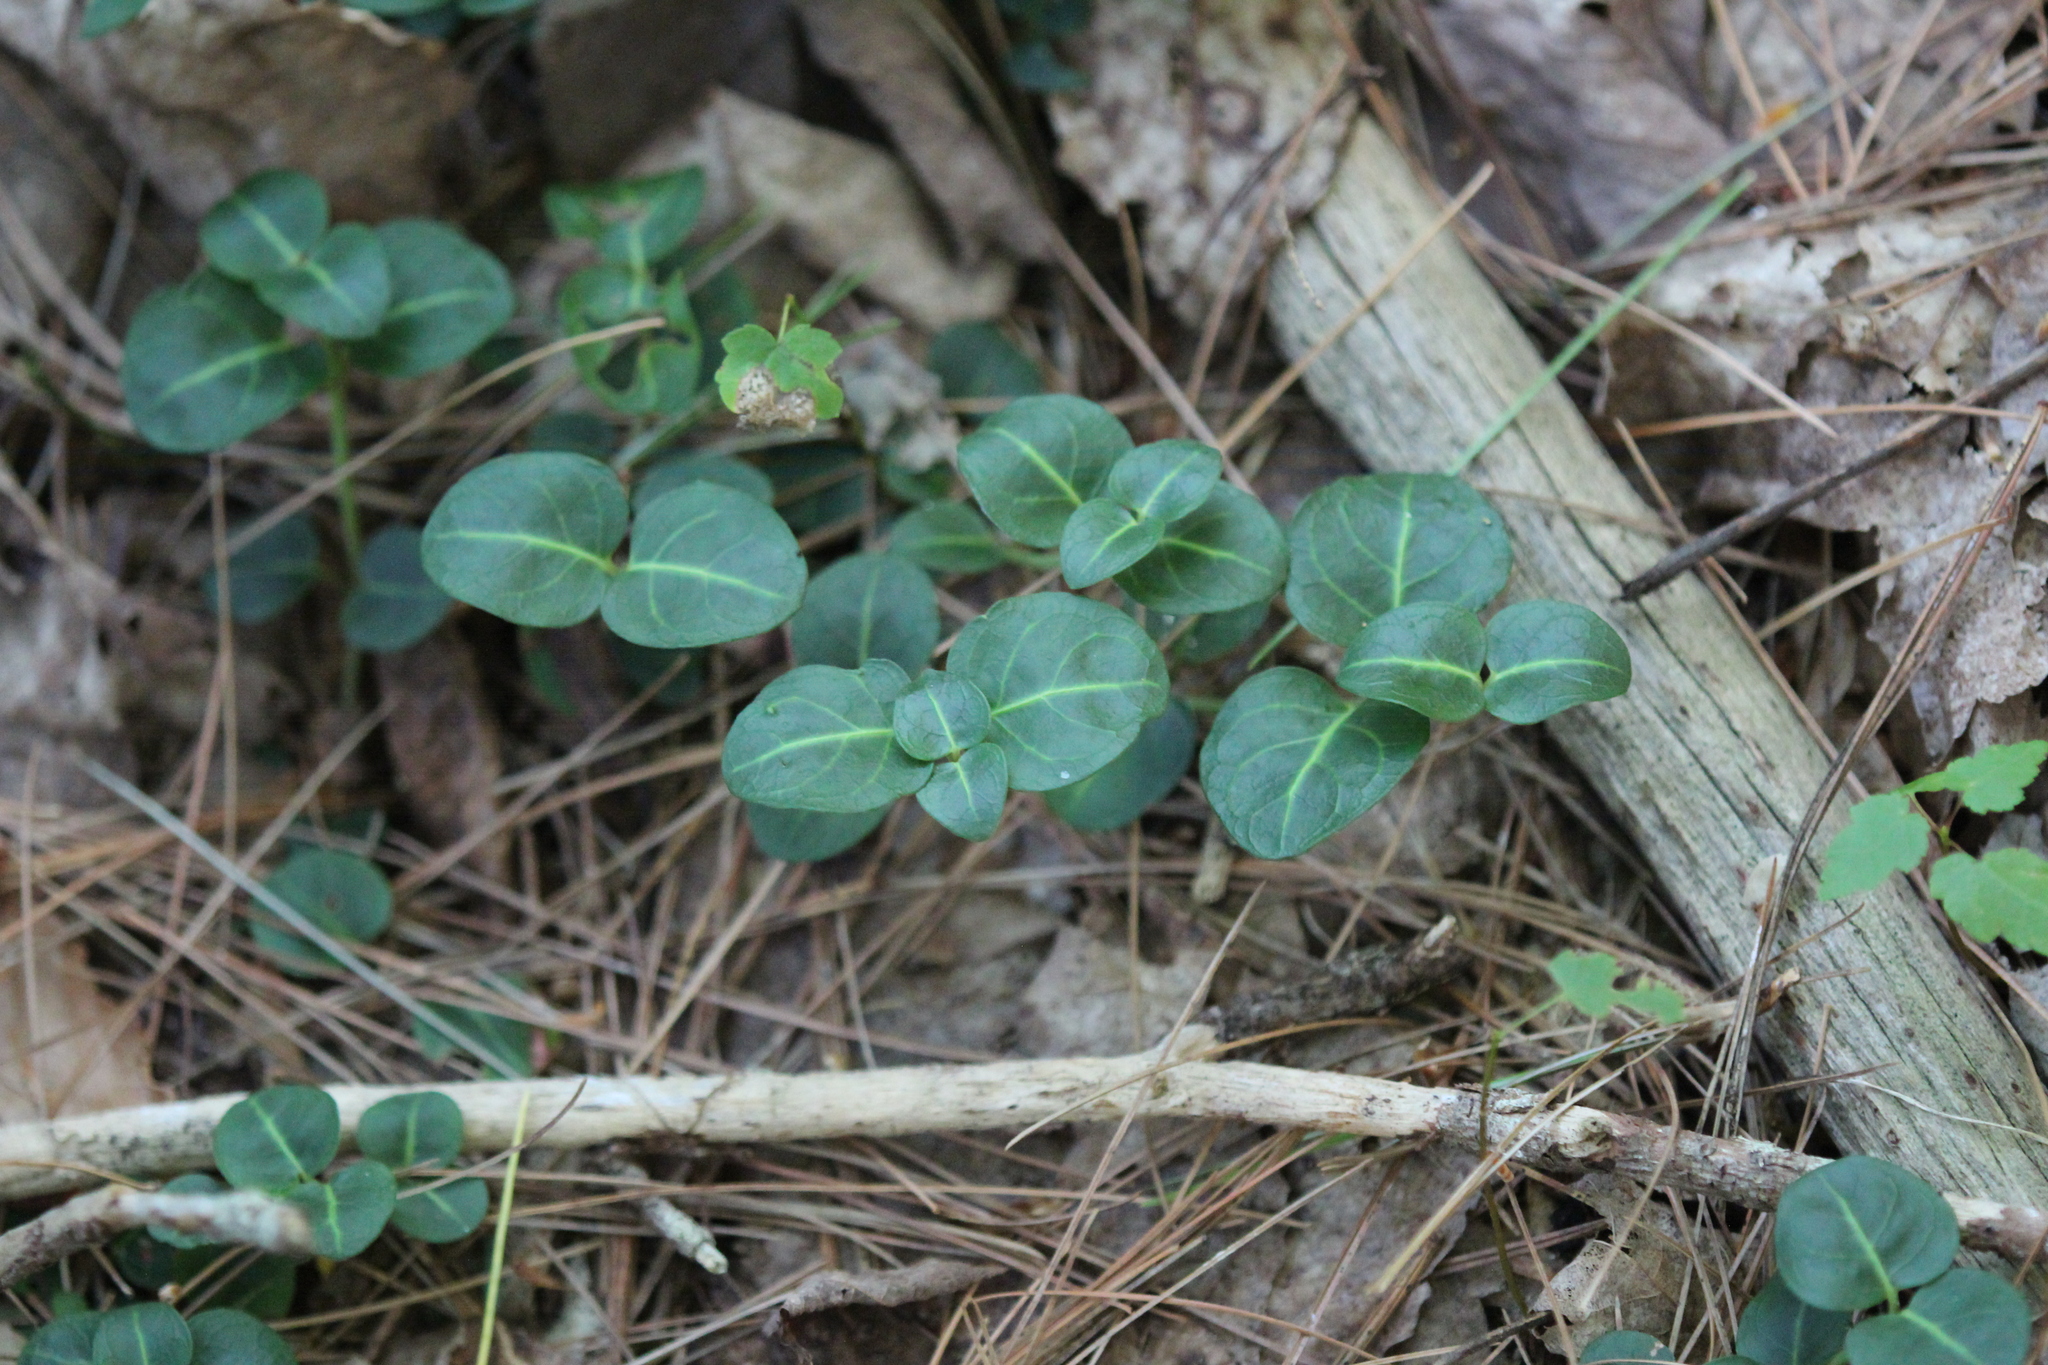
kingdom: Plantae
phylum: Tracheophyta
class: Magnoliopsida
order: Gentianales
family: Rubiaceae
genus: Mitchella
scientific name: Mitchella repens
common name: Partridge-berry
